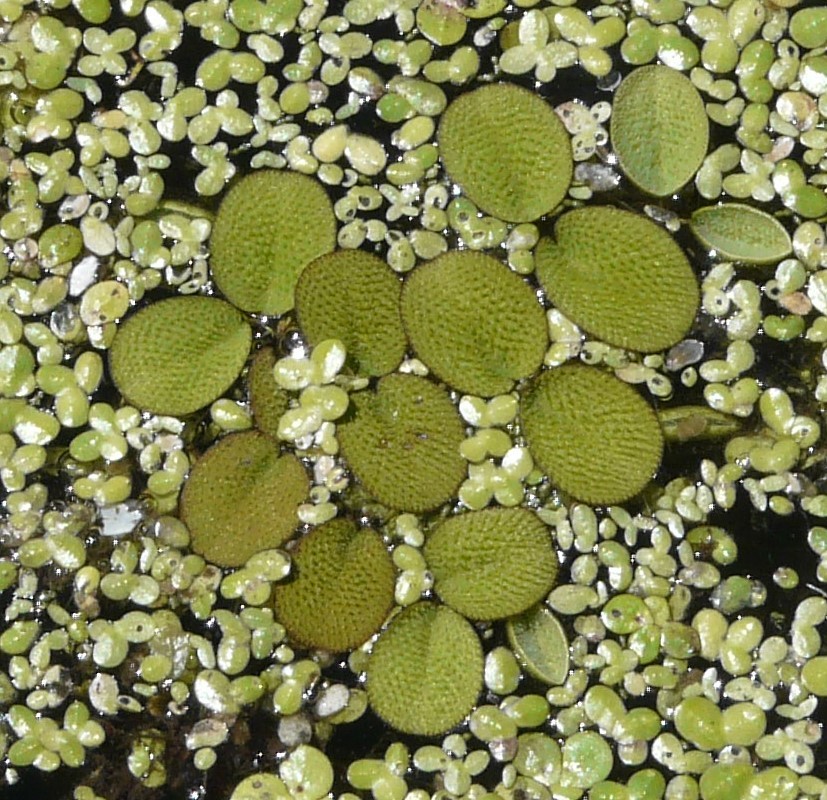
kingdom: Plantae
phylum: Tracheophyta
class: Polypodiopsida
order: Salviniales
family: Salviniaceae
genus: Salvinia
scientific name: Salvinia minima
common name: Water spangles
